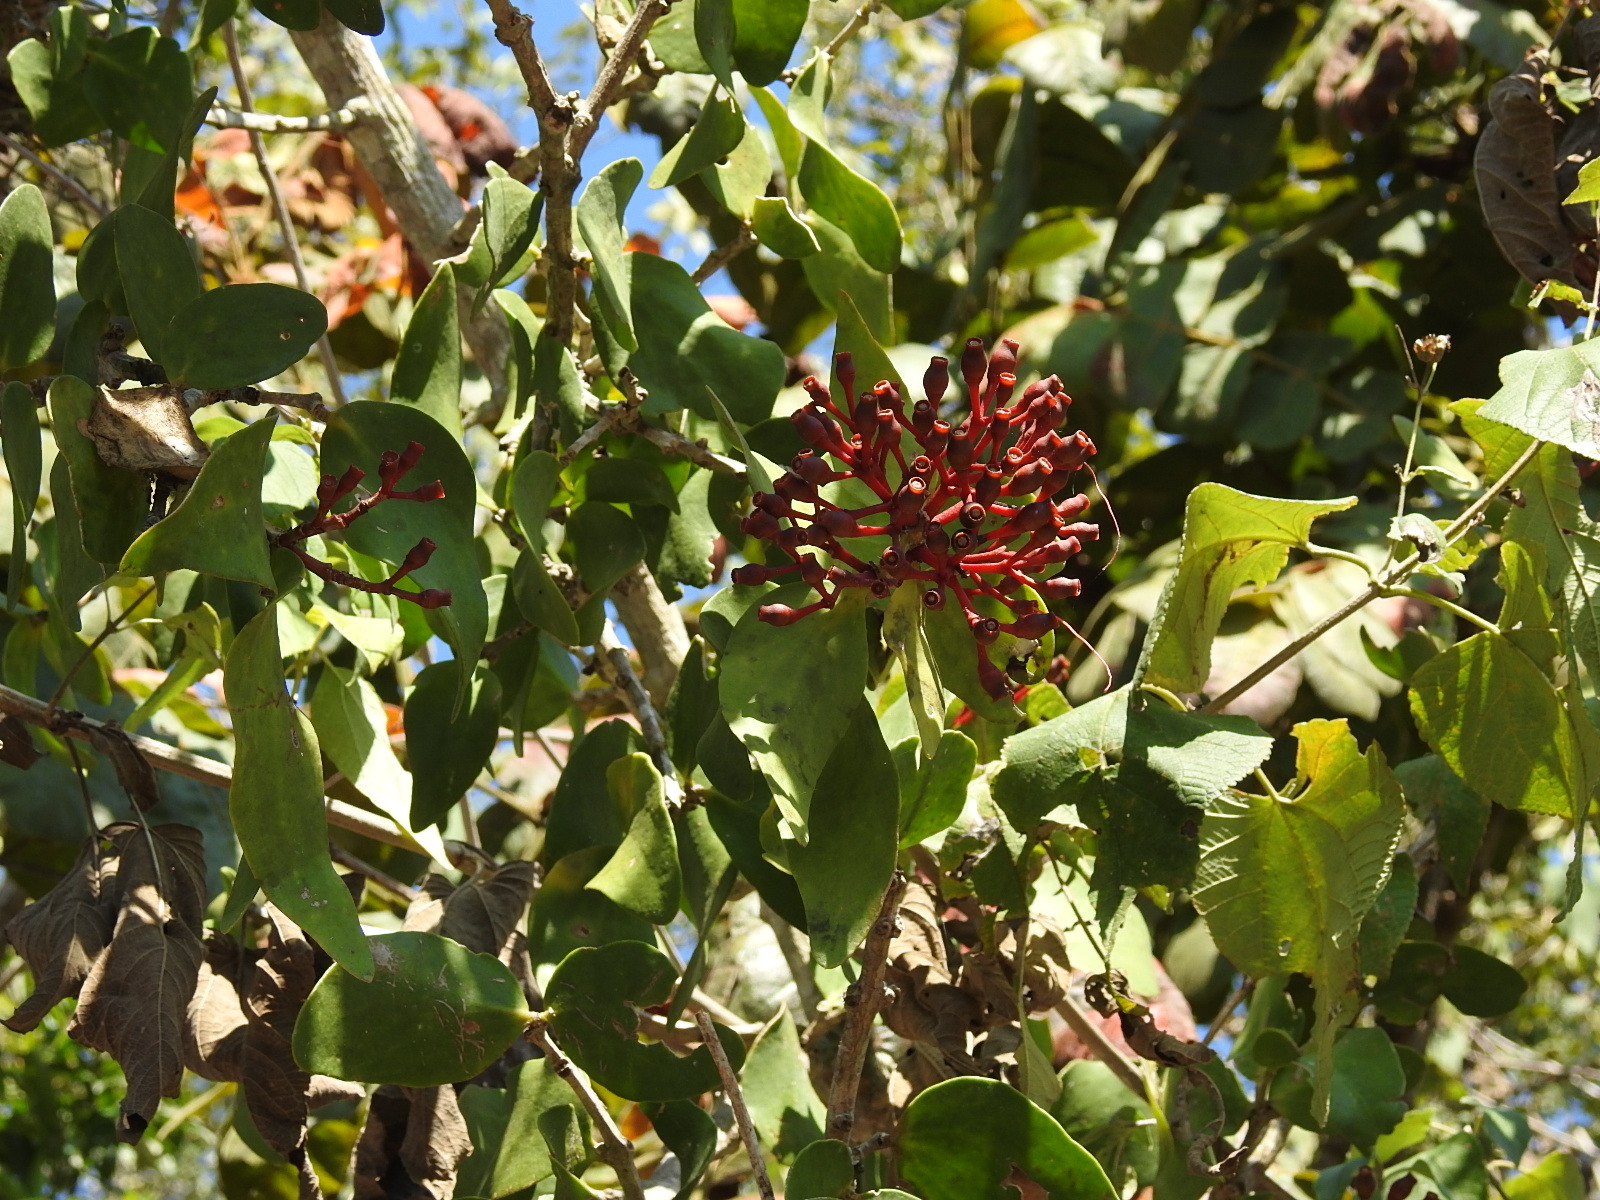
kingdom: Plantae
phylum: Tracheophyta
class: Magnoliopsida
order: Santalales
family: Loranthaceae
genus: Psittacanthus
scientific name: Psittacanthus rhynchanthus
